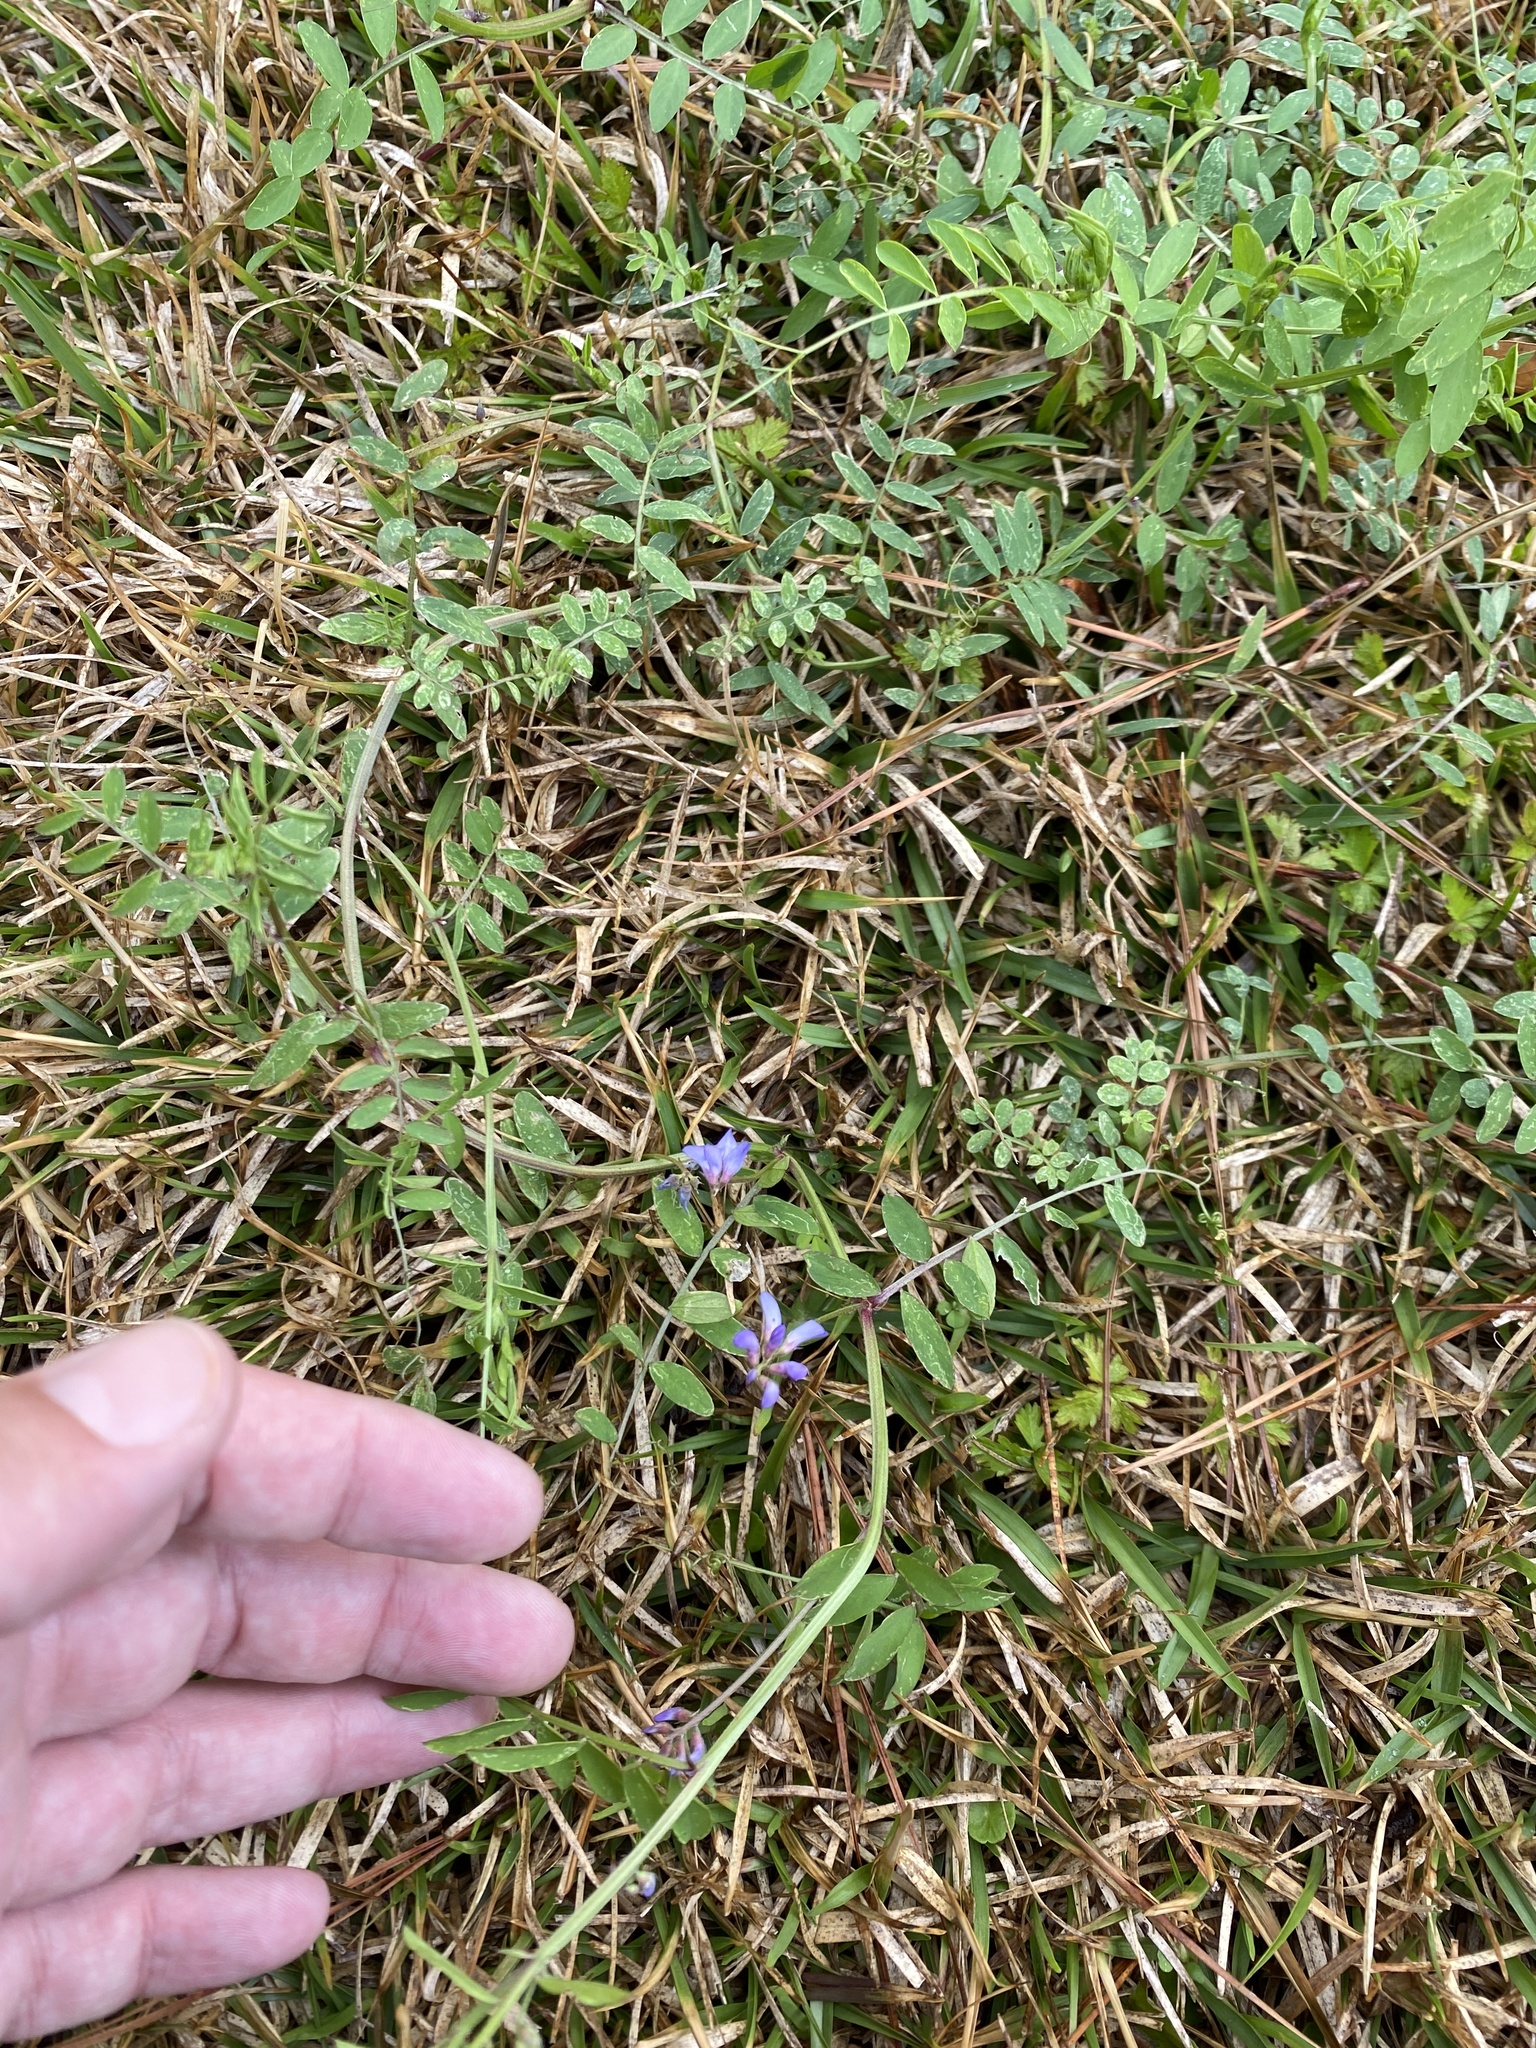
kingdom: Plantae
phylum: Tracheophyta
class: Magnoliopsida
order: Fabales
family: Fabaceae
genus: Vicia
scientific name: Vicia ludoviciana
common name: Louisiana vetch
